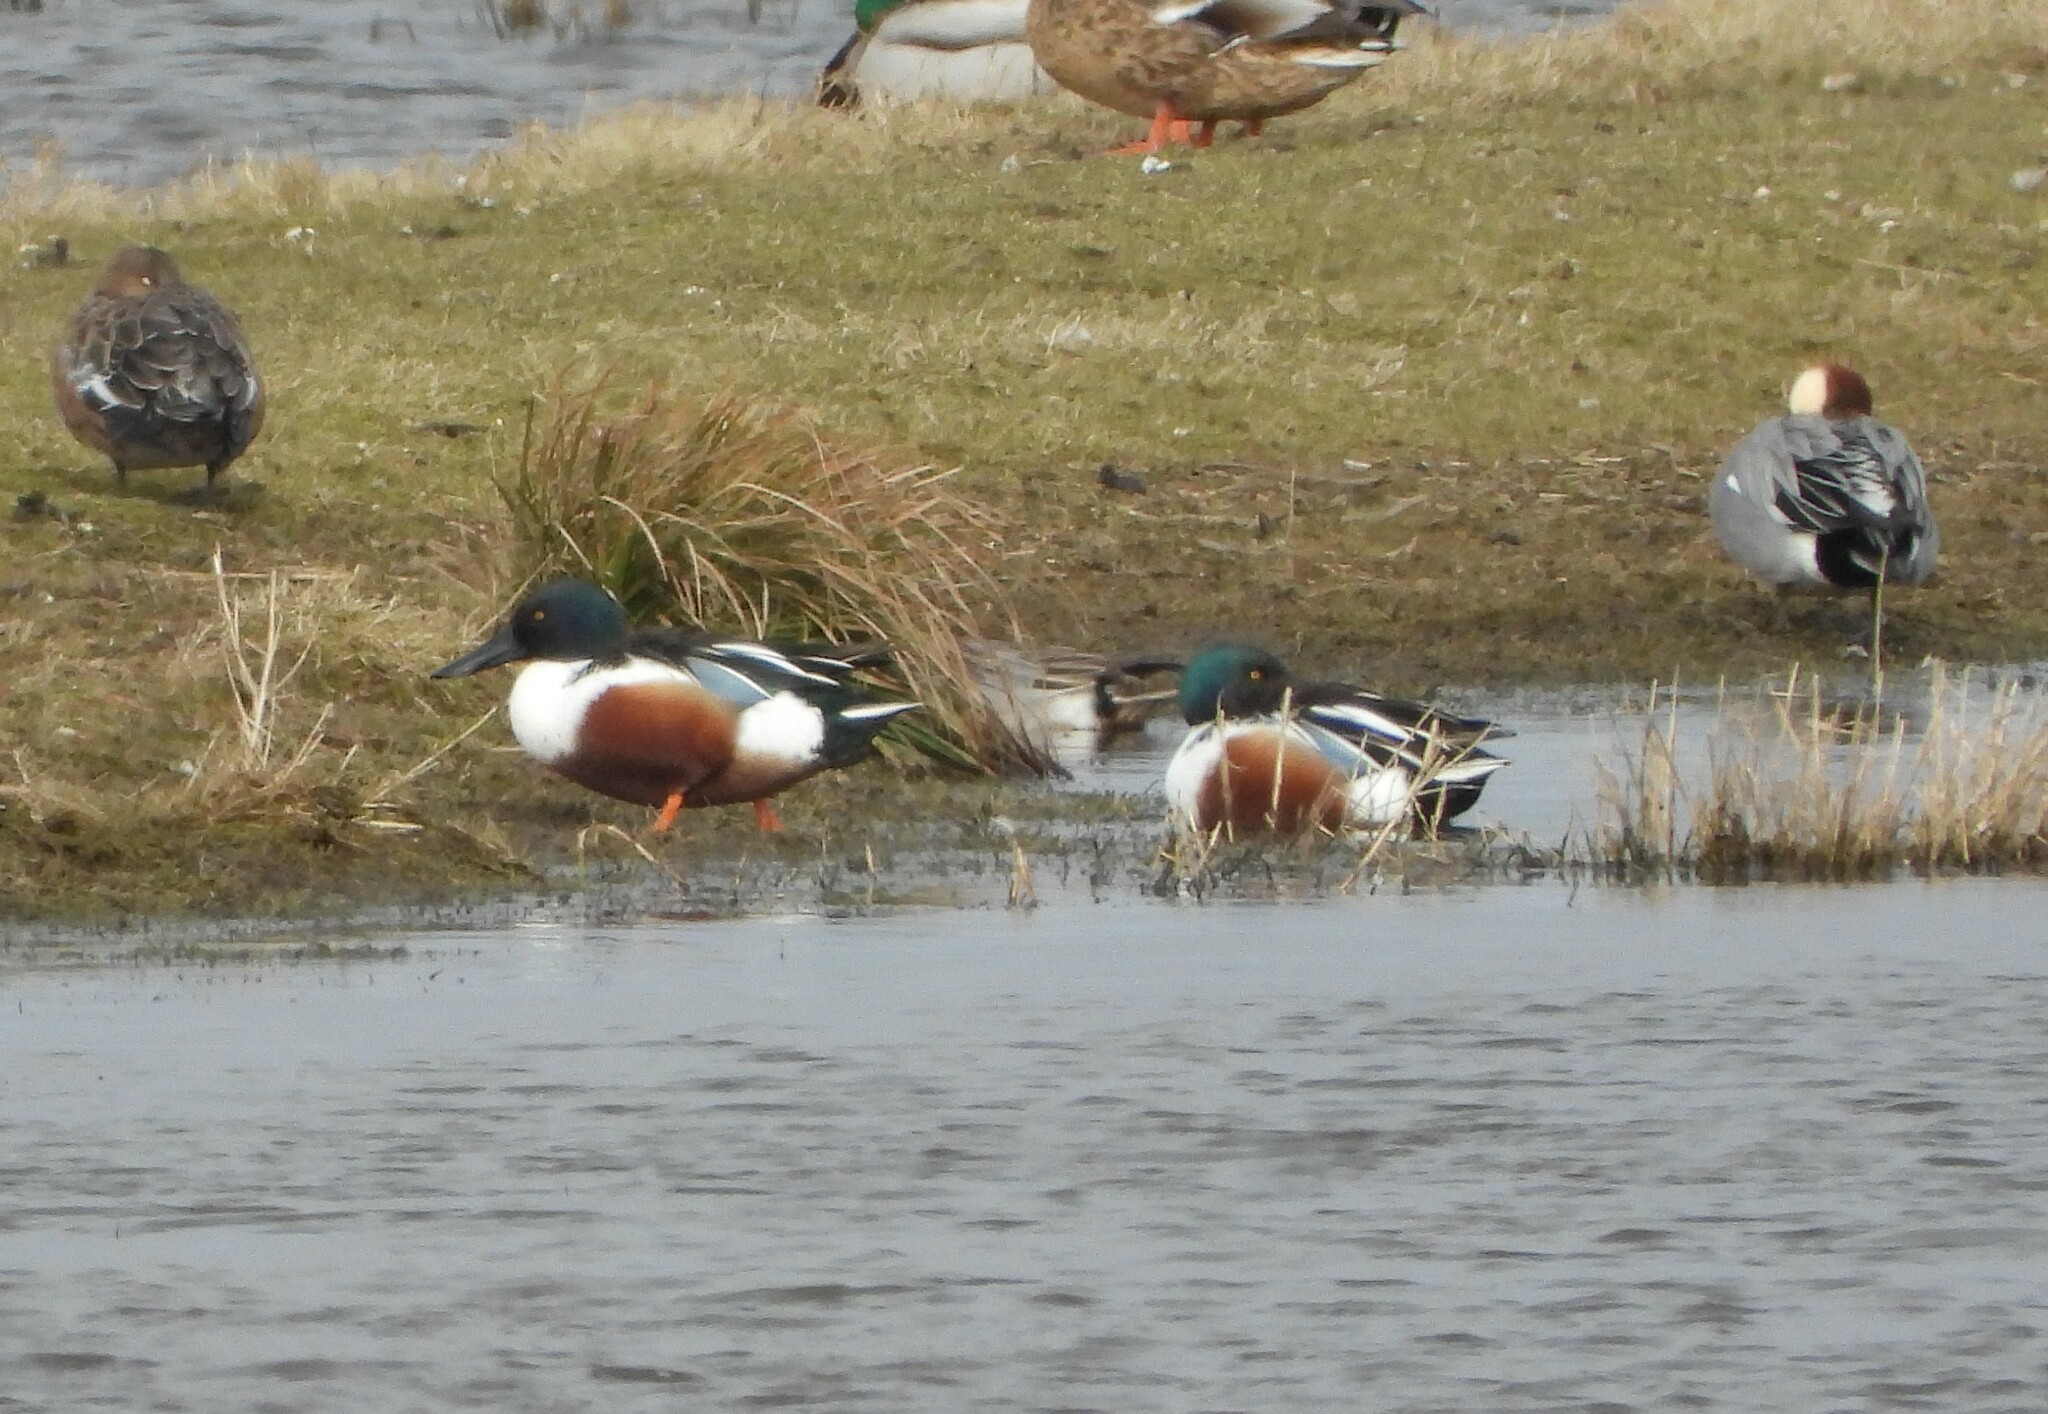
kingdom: Animalia
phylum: Chordata
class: Aves
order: Anseriformes
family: Anatidae
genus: Spatula
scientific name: Spatula clypeata
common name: Northern shoveler
